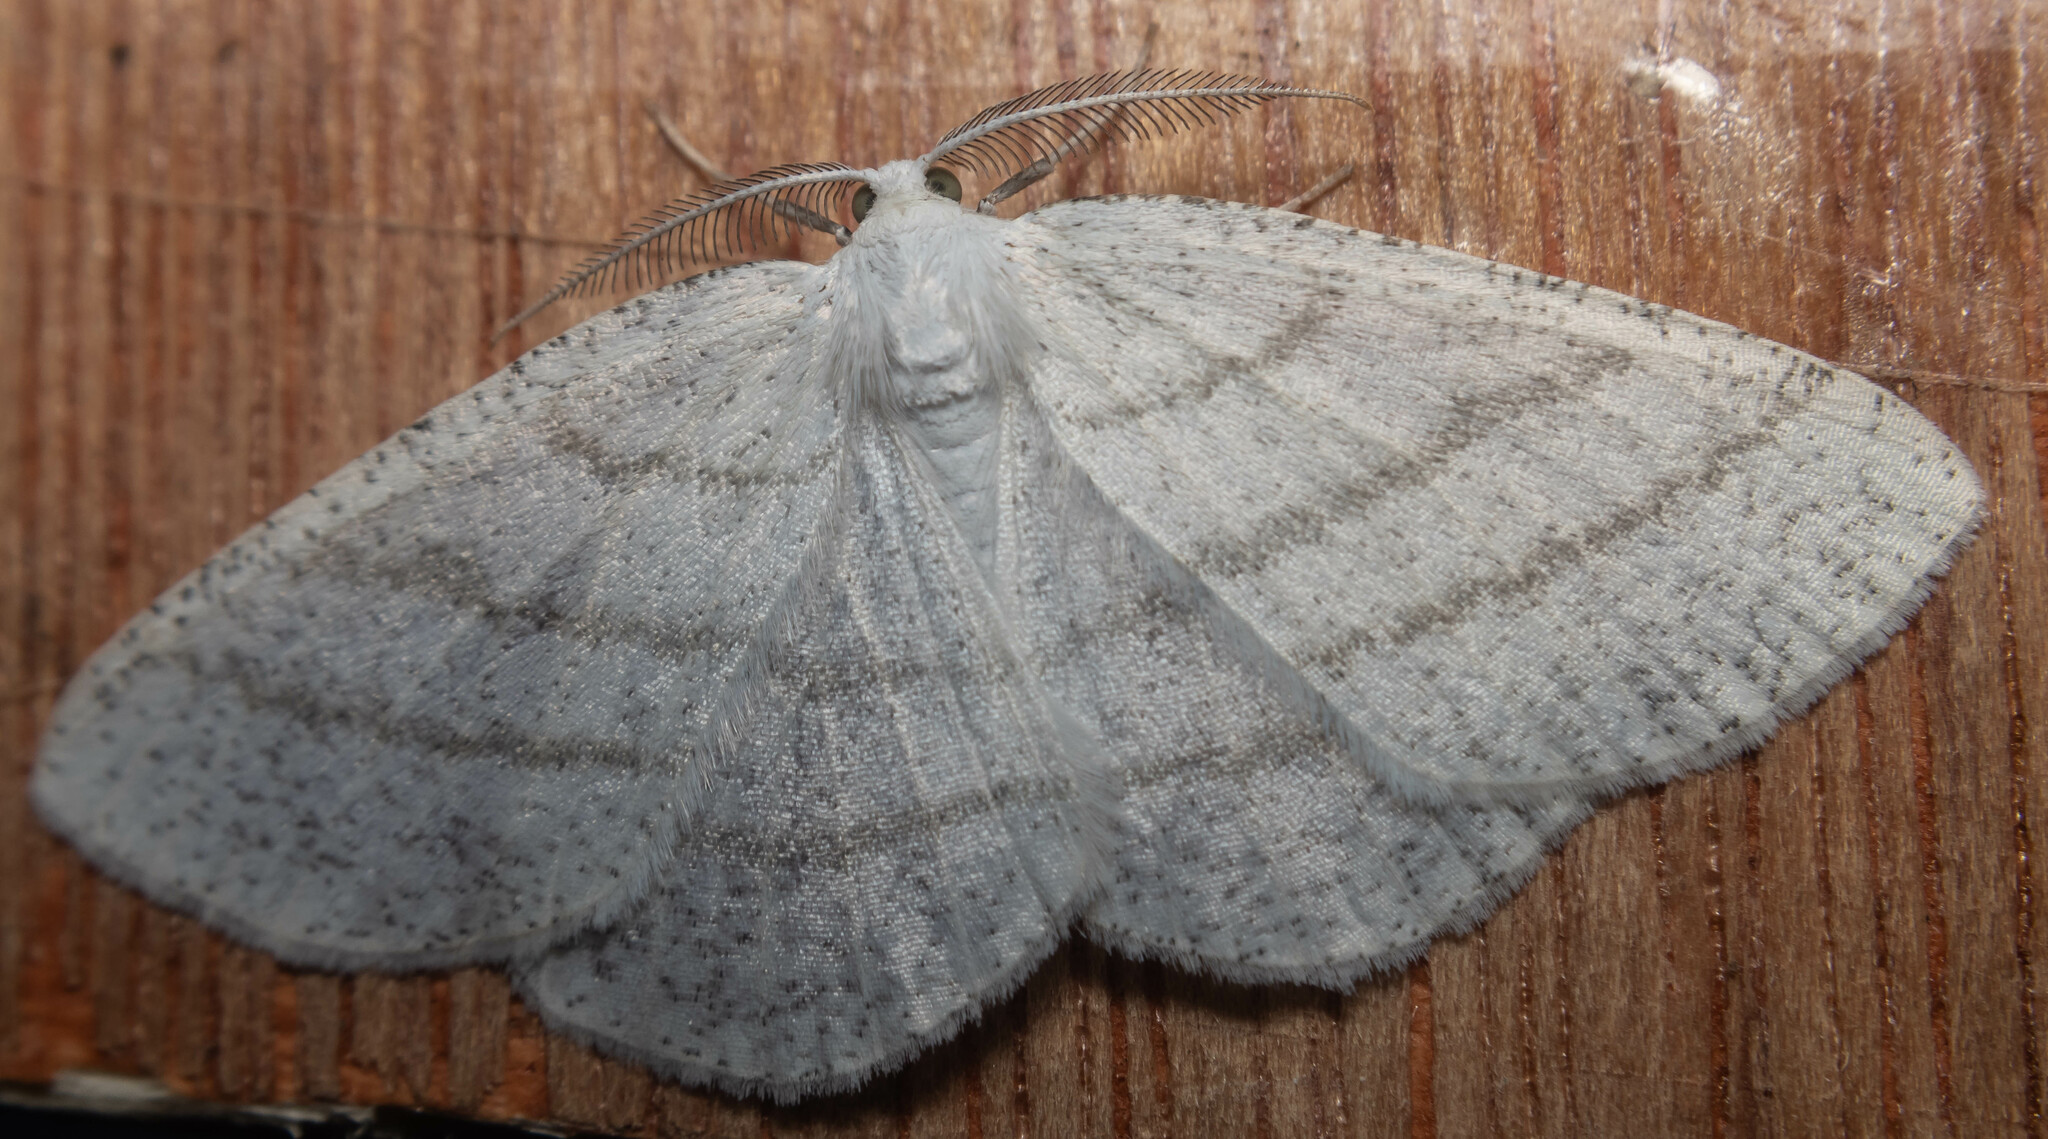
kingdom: Animalia
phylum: Arthropoda
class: Insecta
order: Lepidoptera
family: Geometridae
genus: Cabera
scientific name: Cabera pusaria
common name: Common white wave
